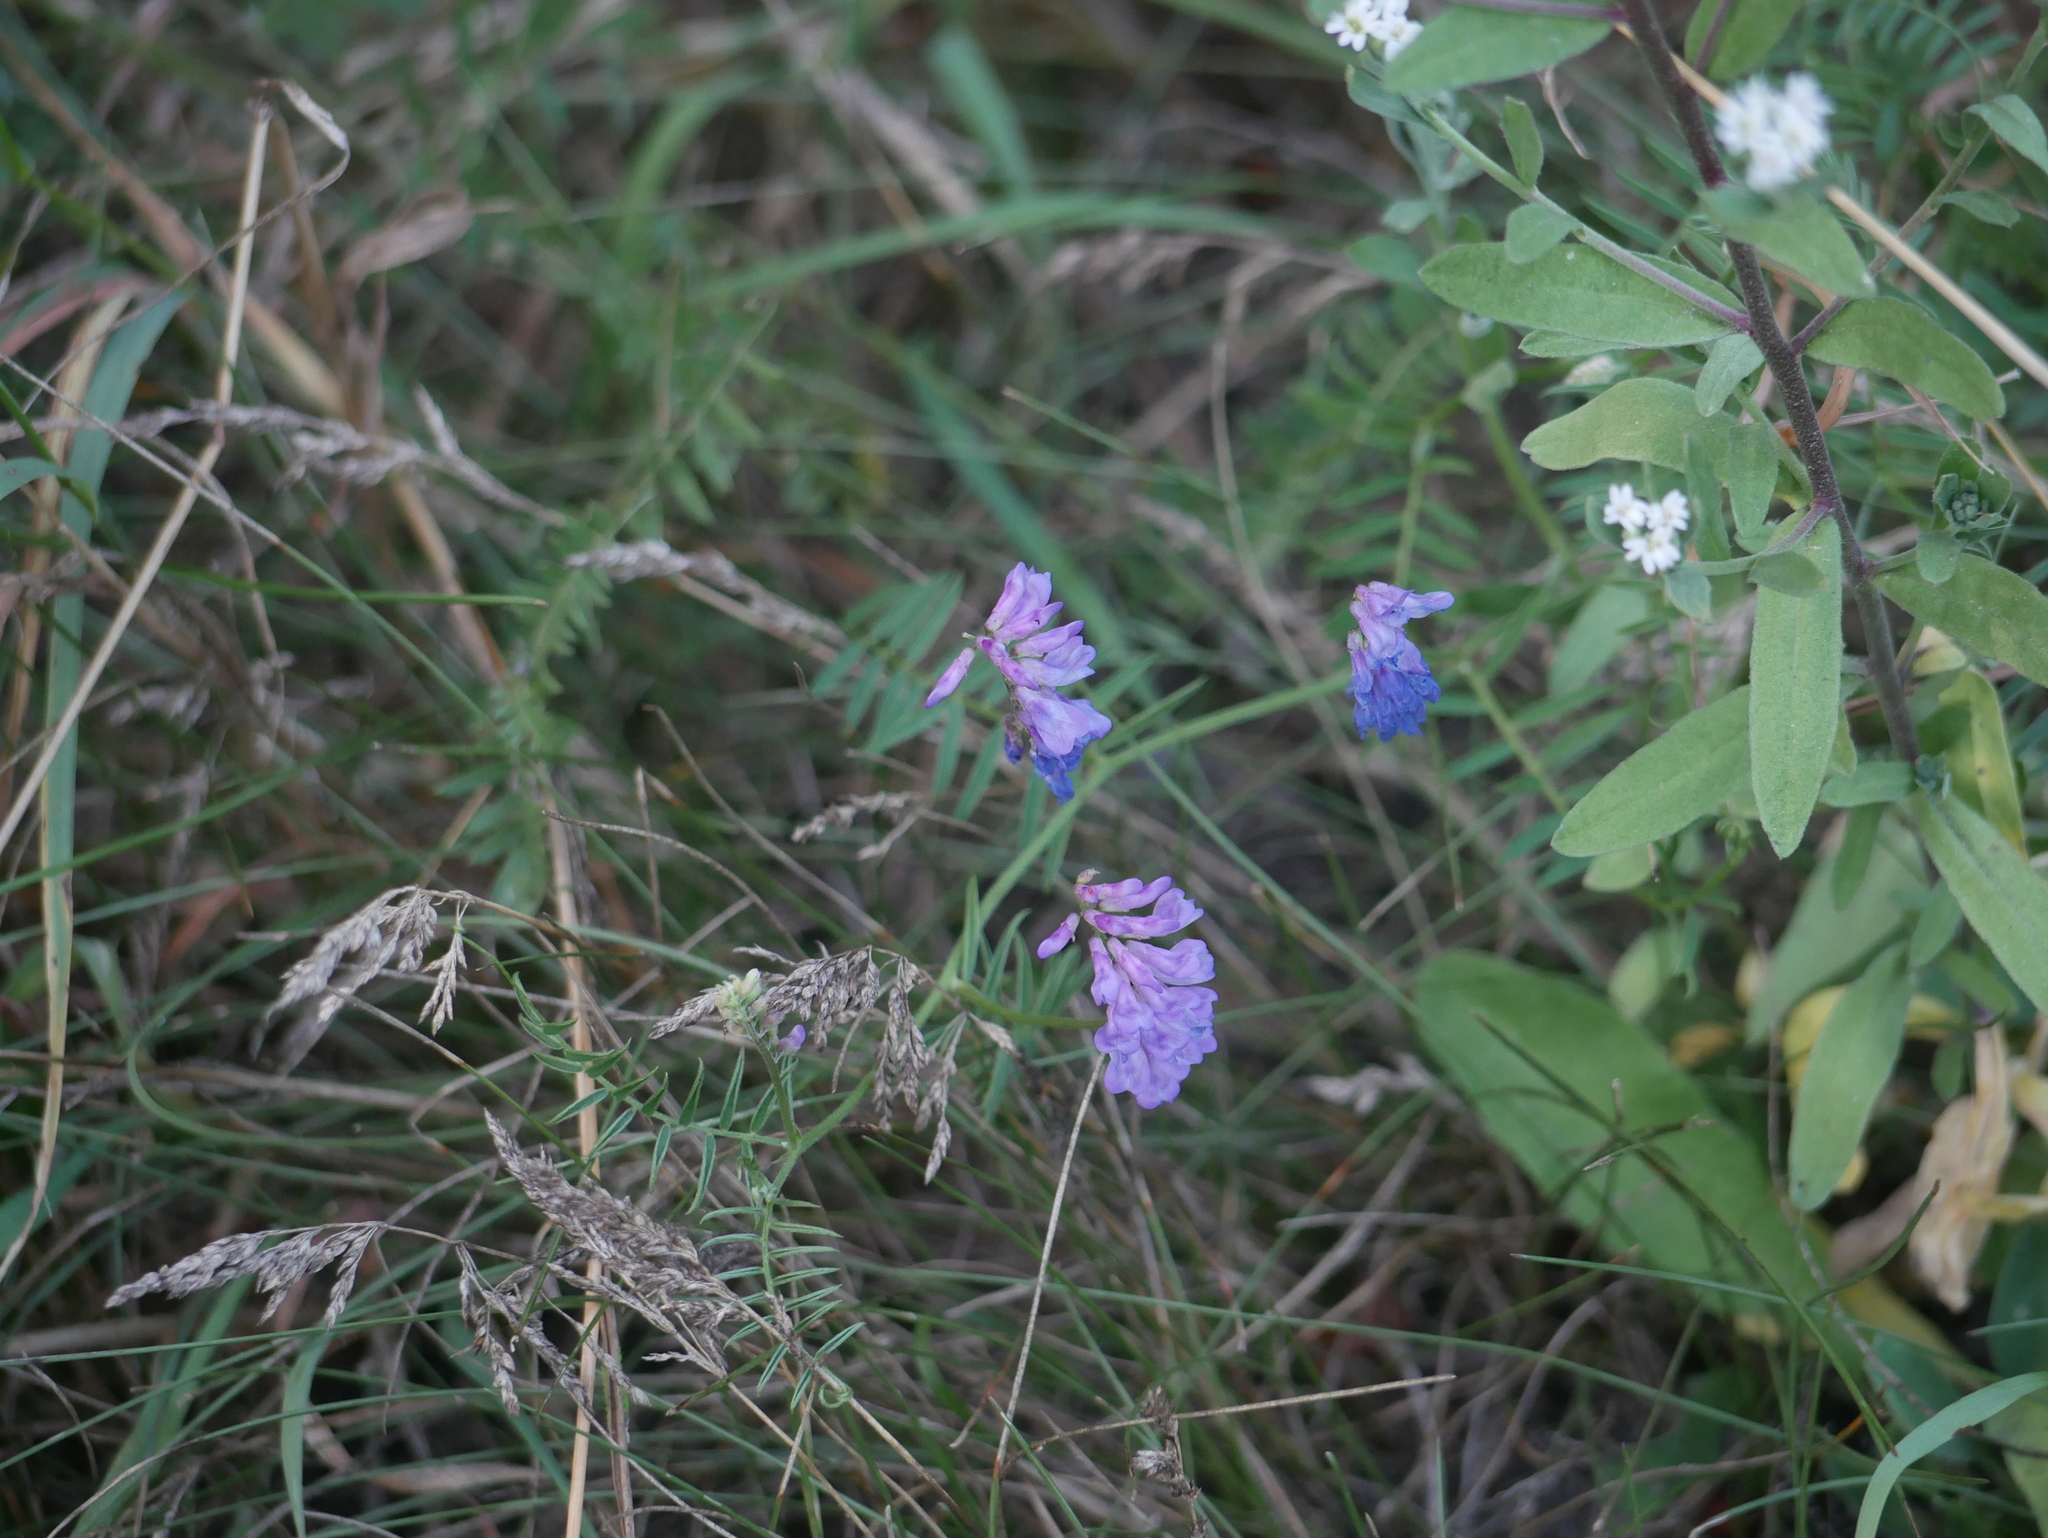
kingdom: Plantae
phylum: Tracheophyta
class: Magnoliopsida
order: Fabales
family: Fabaceae
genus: Vicia
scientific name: Vicia cracca
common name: Bird vetch
